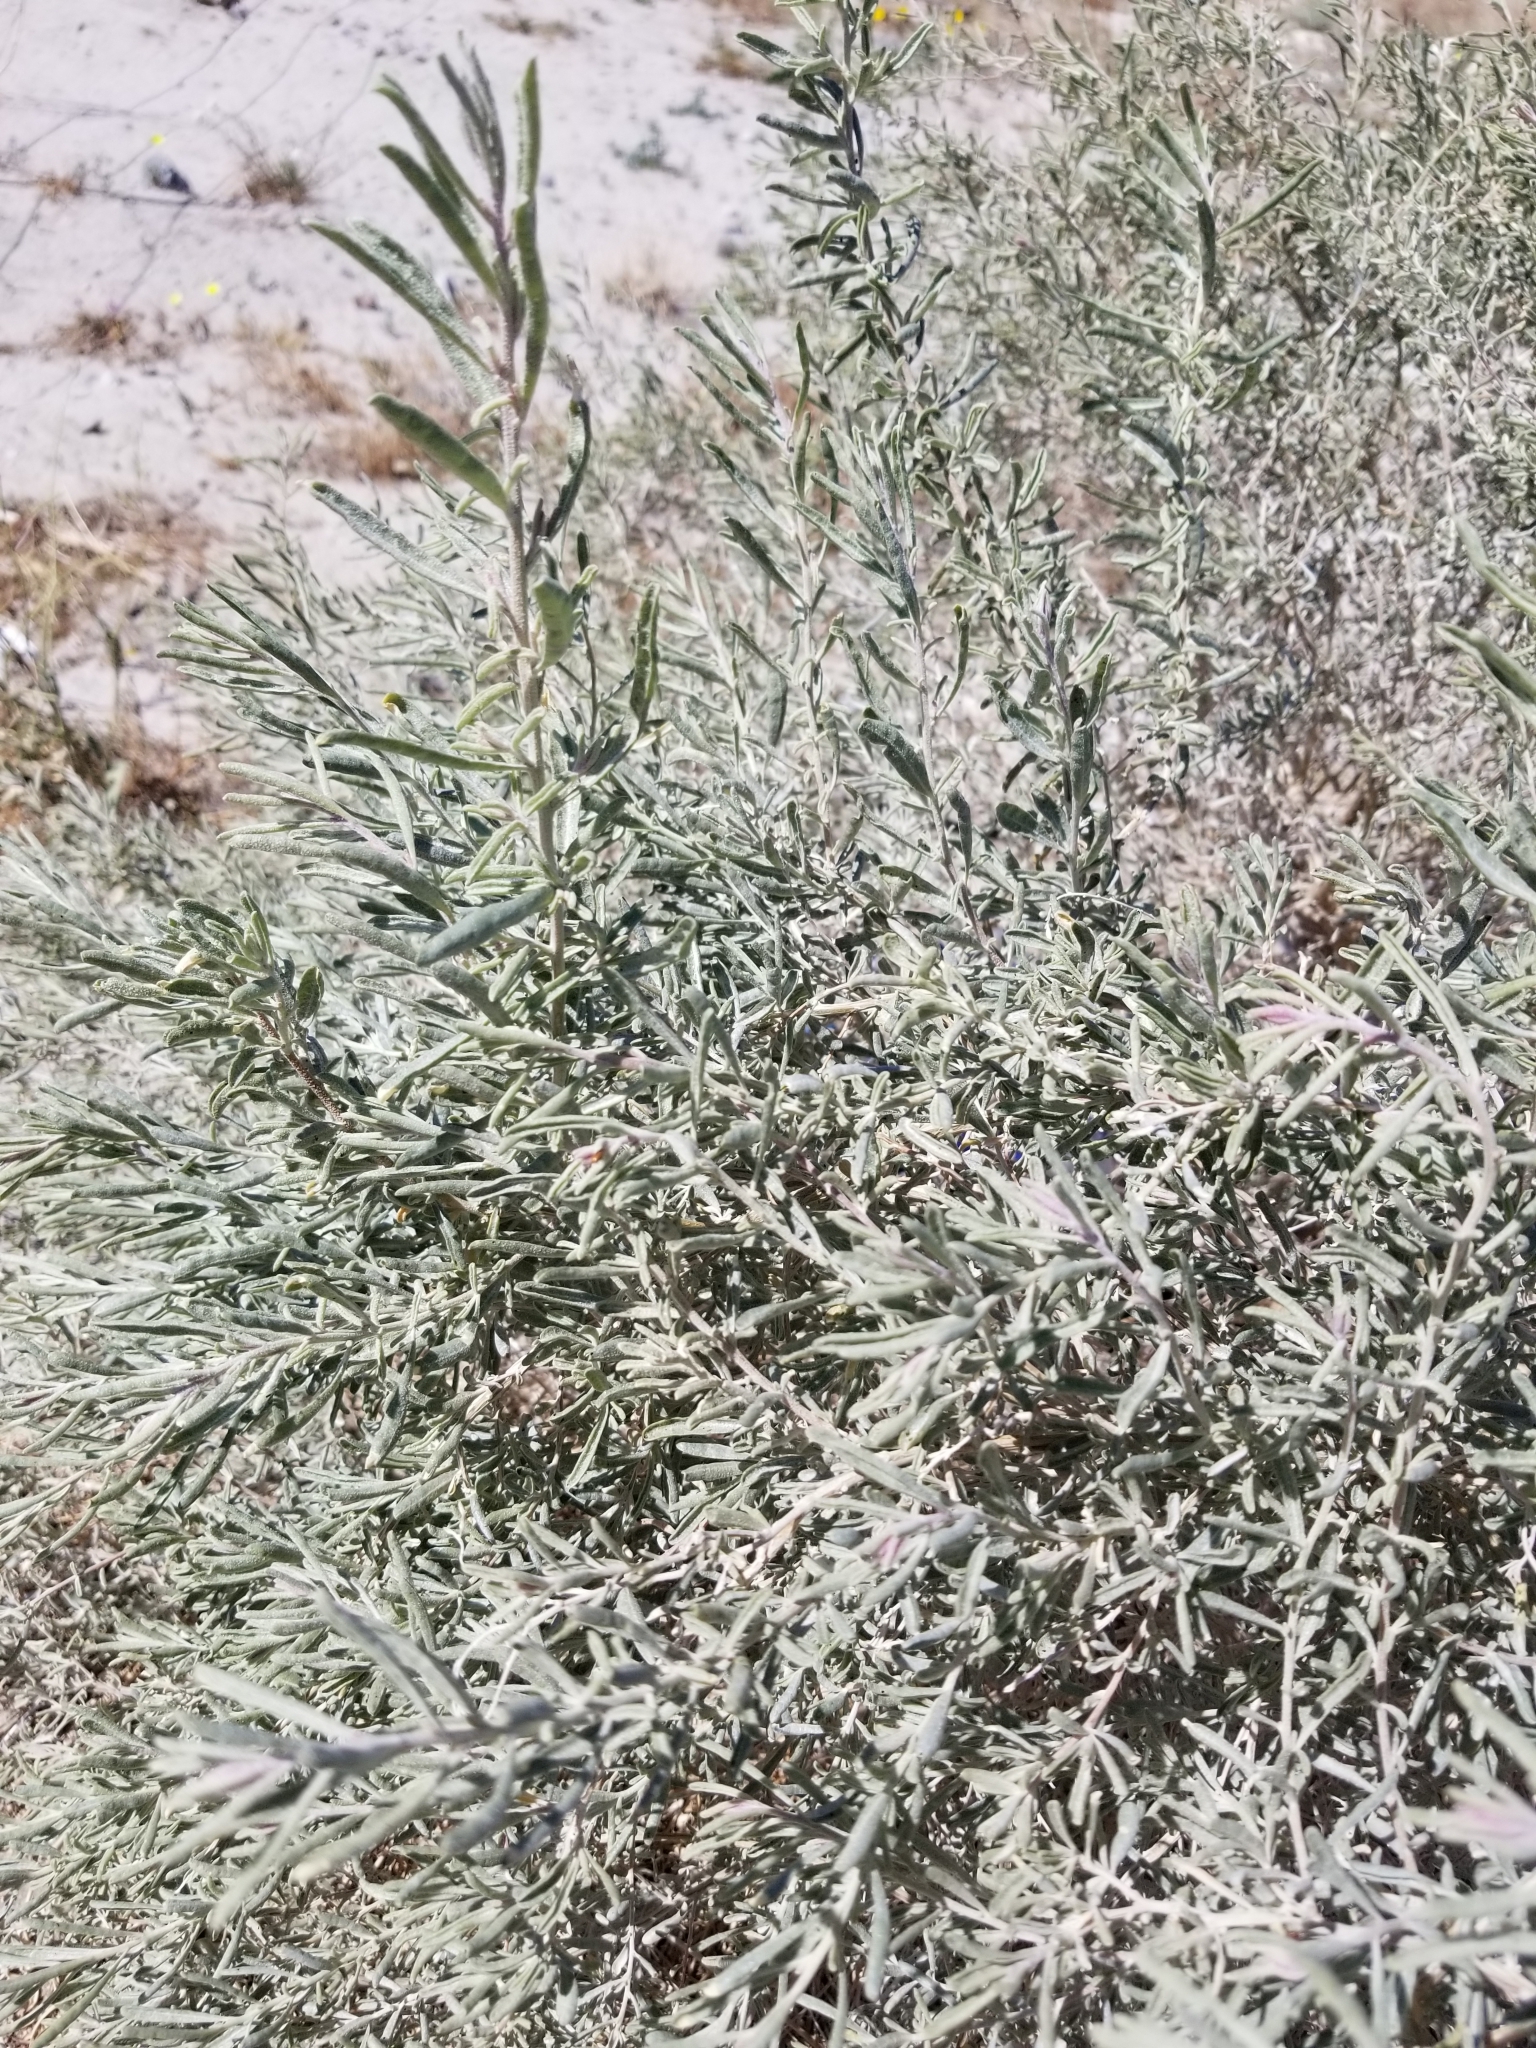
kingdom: Plantae
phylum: Tracheophyta
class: Magnoliopsida
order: Caryophyllales
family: Amaranthaceae
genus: Atriplex
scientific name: Atriplex canescens
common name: Four-wing saltbush
